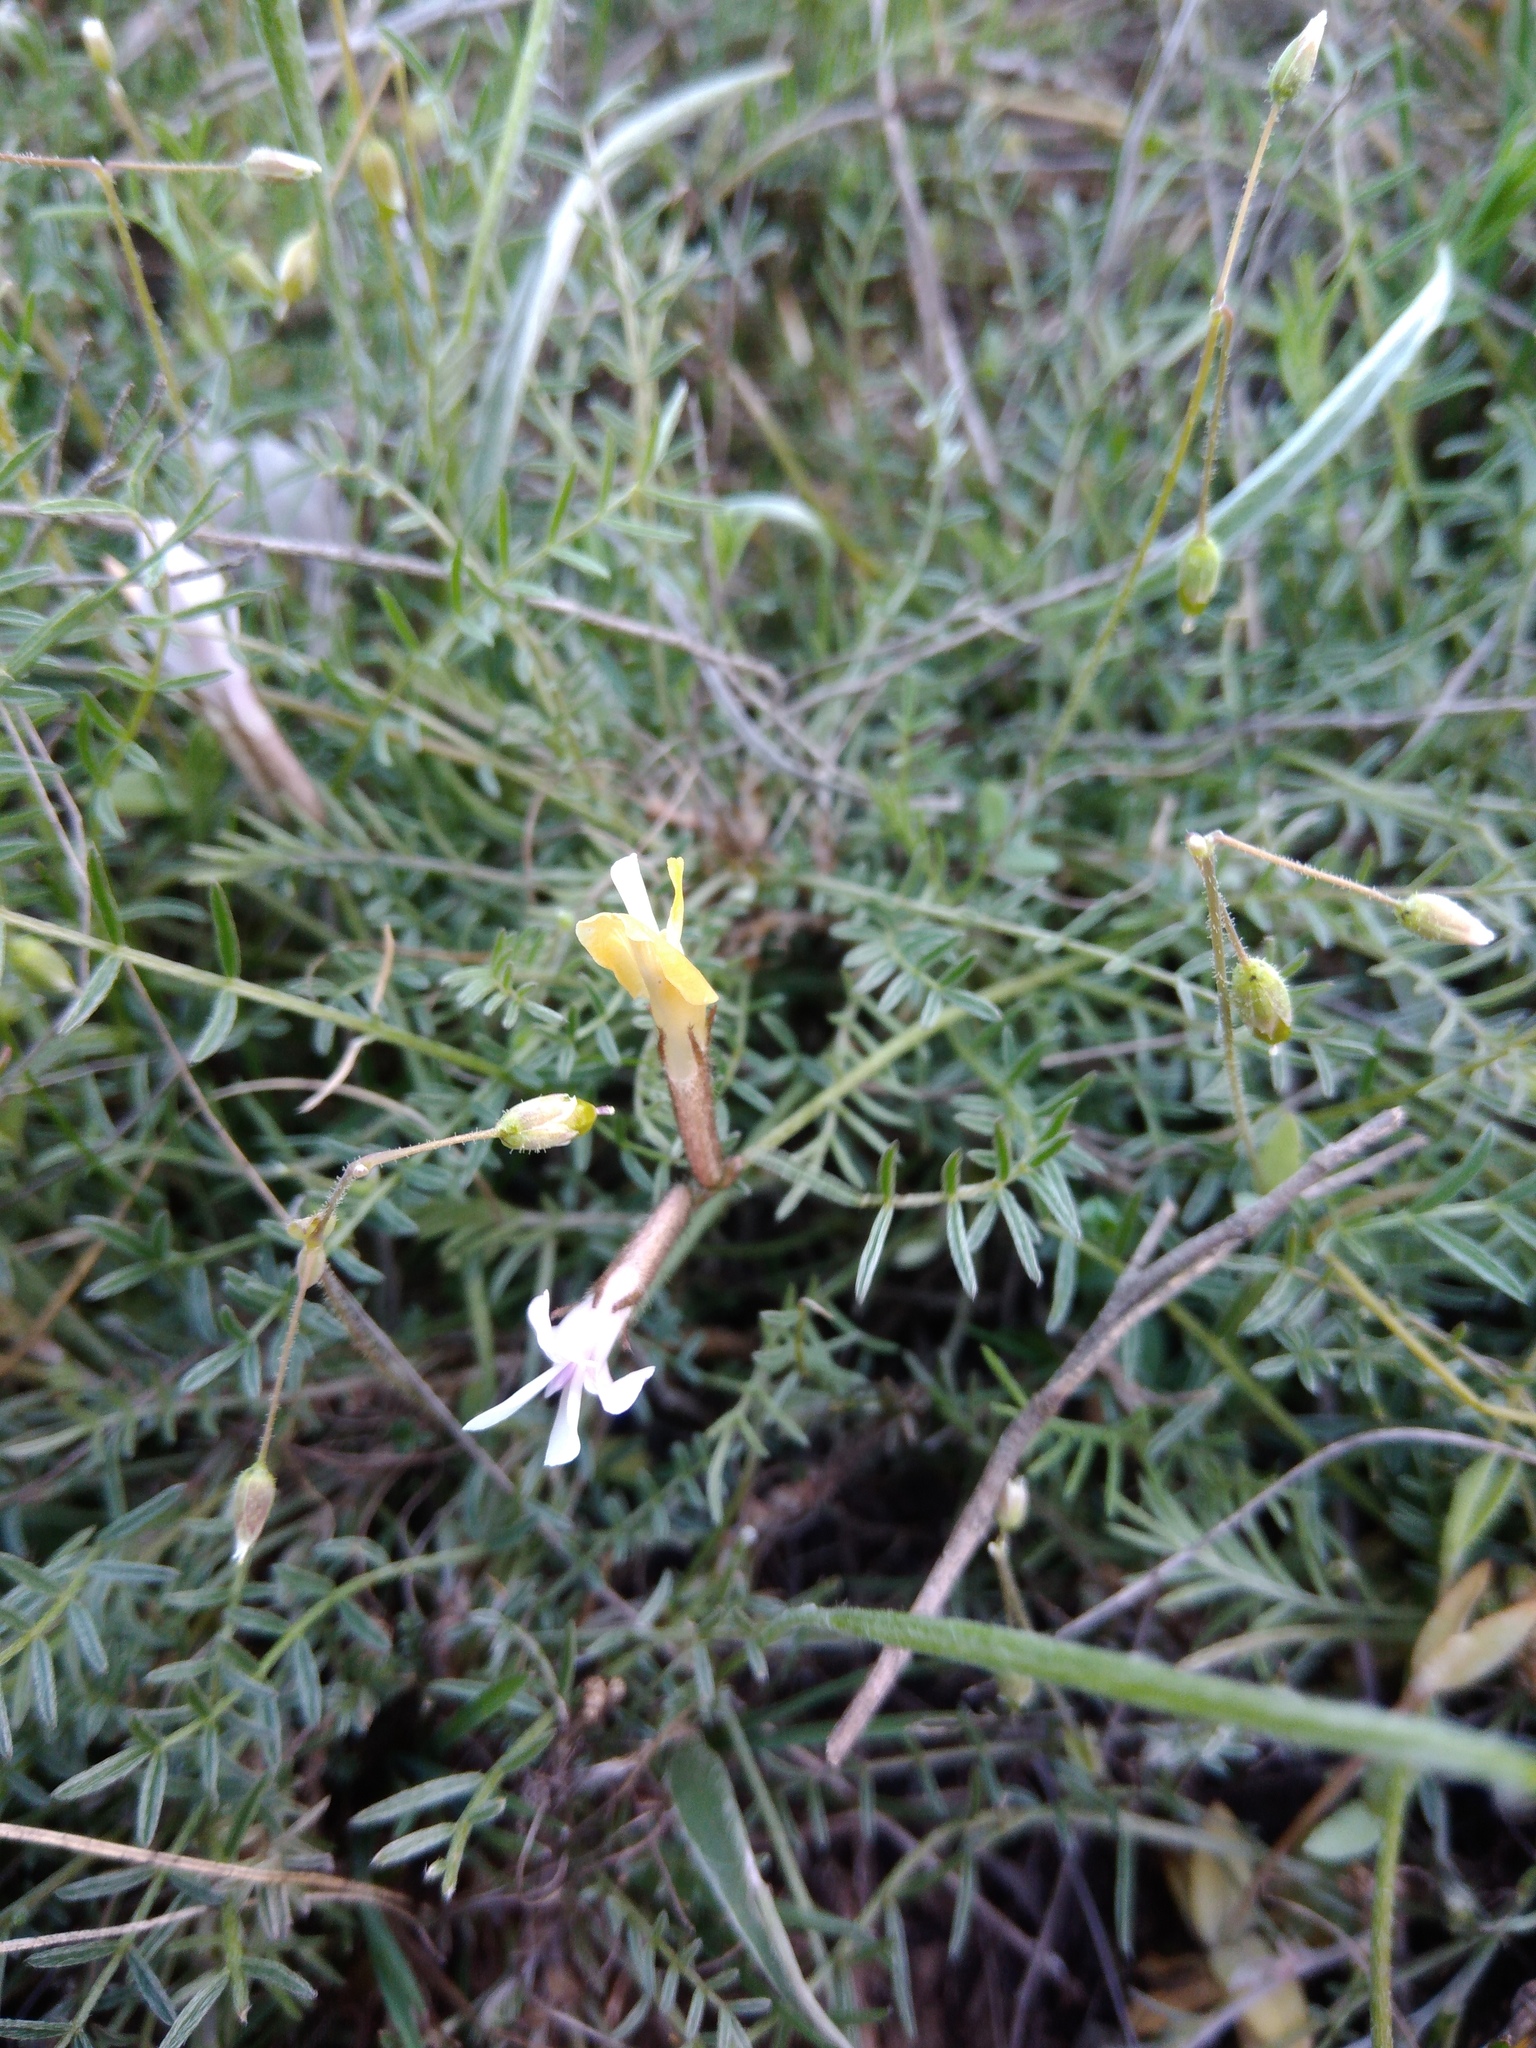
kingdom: Plantae
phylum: Tracheophyta
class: Magnoliopsida
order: Fabales
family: Fabaceae
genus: Astragalus
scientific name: Astragalus corniculatus
